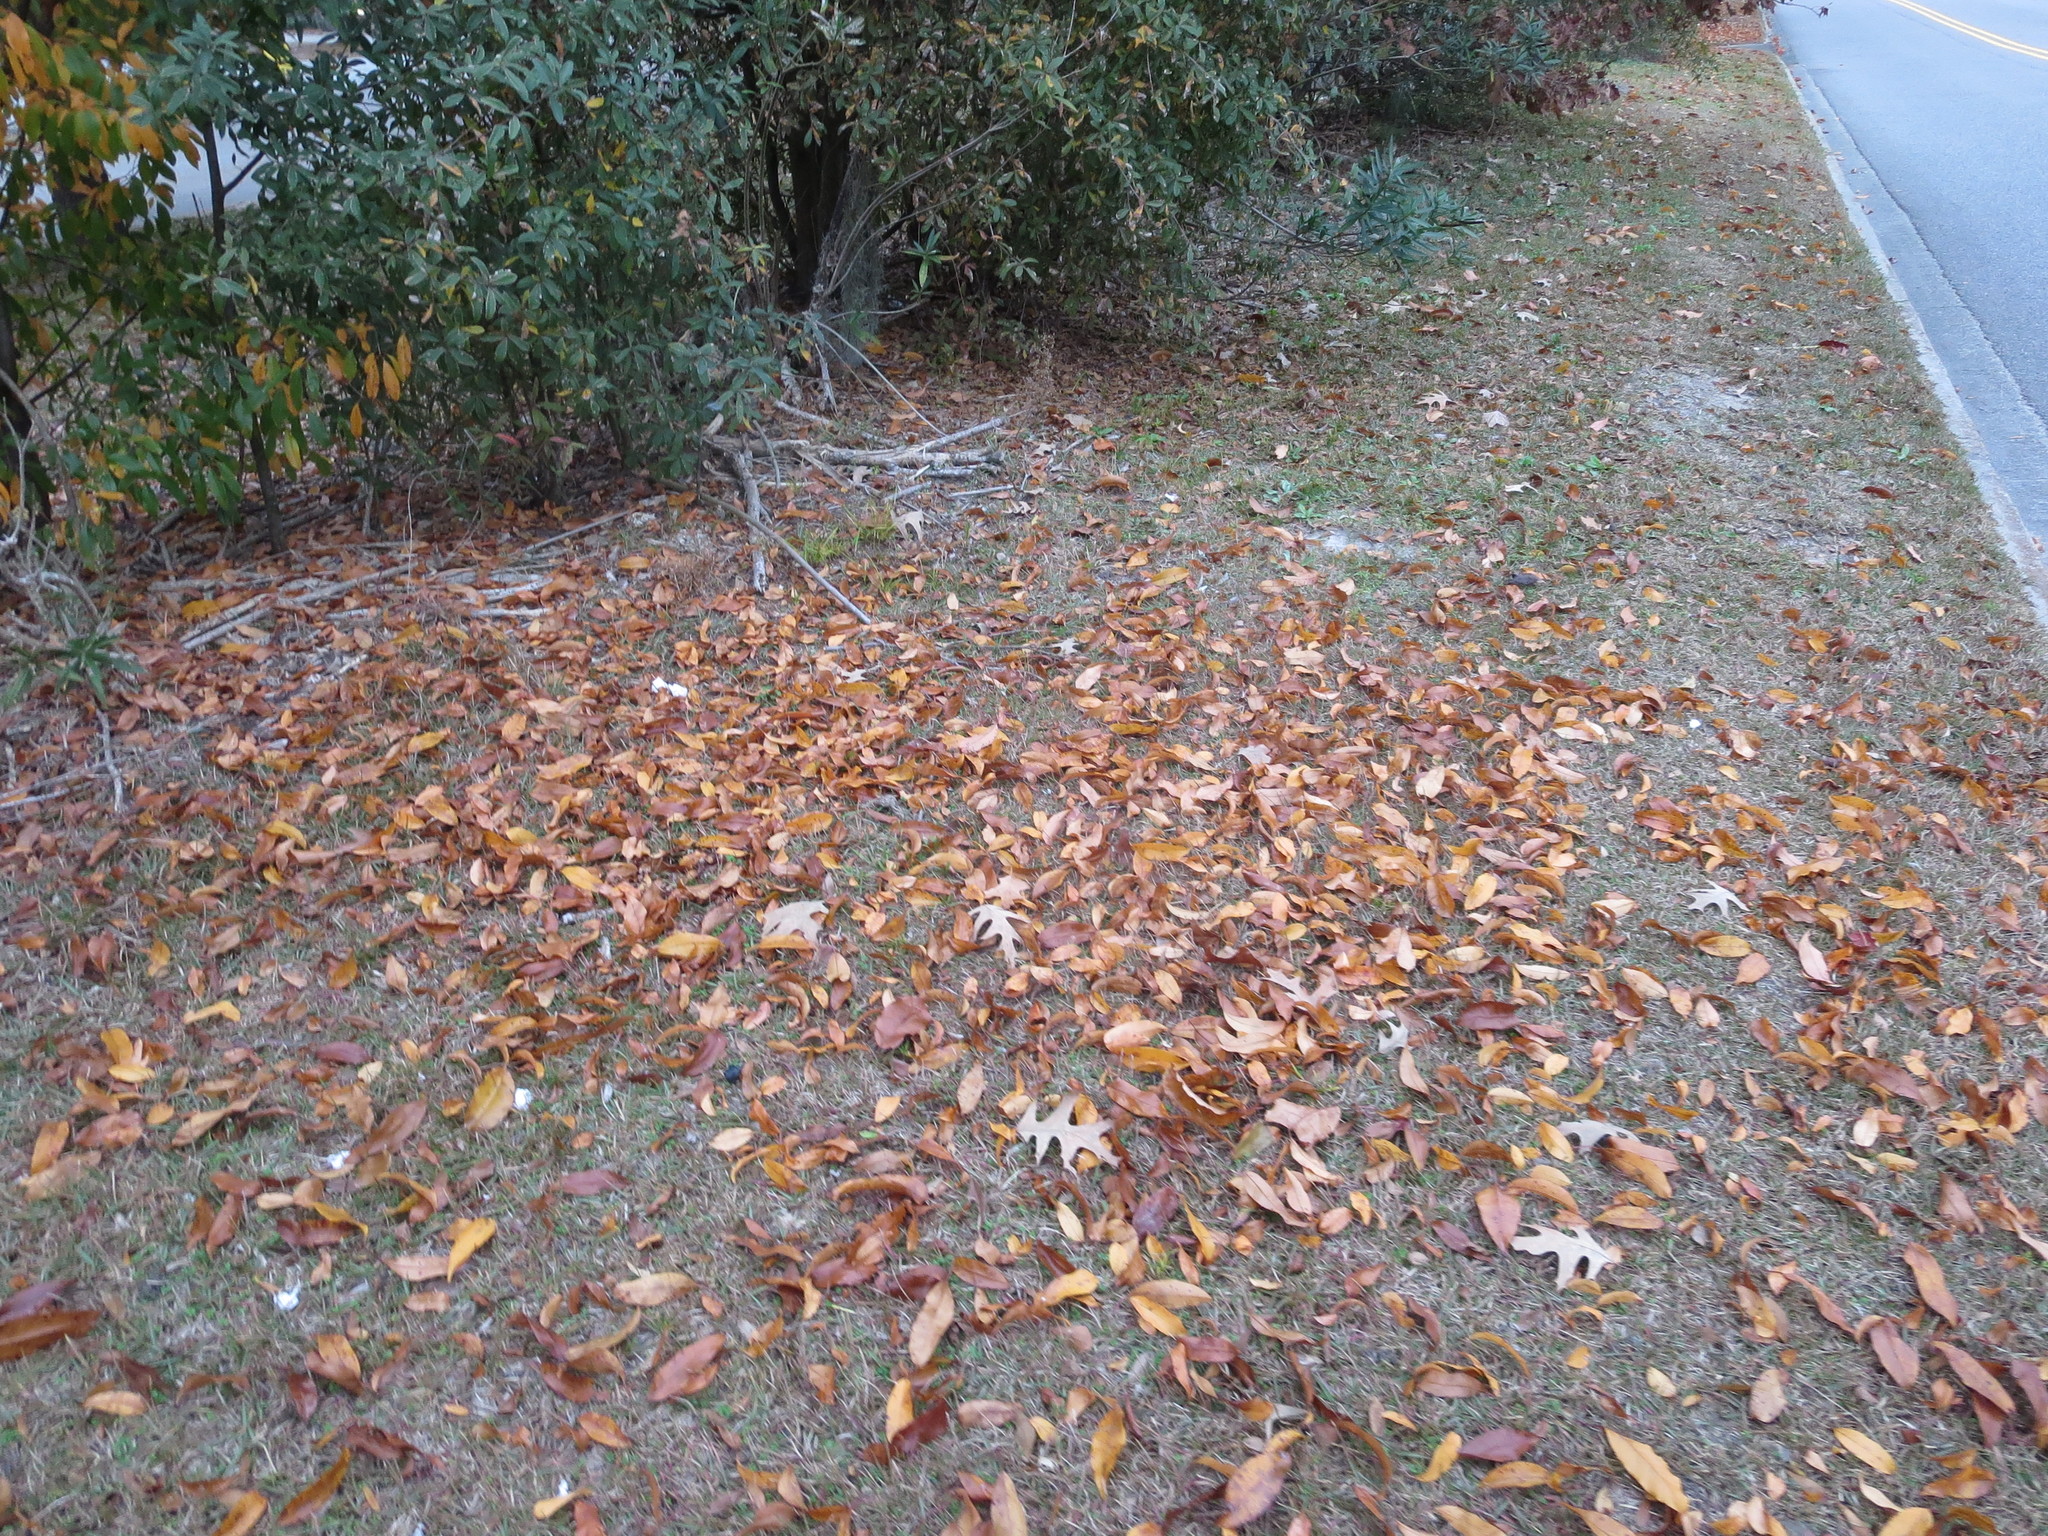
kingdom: Plantae
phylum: Tracheophyta
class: Magnoliopsida
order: Rosales
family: Rosaceae
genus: Prunus
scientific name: Prunus serotina
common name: Black cherry
